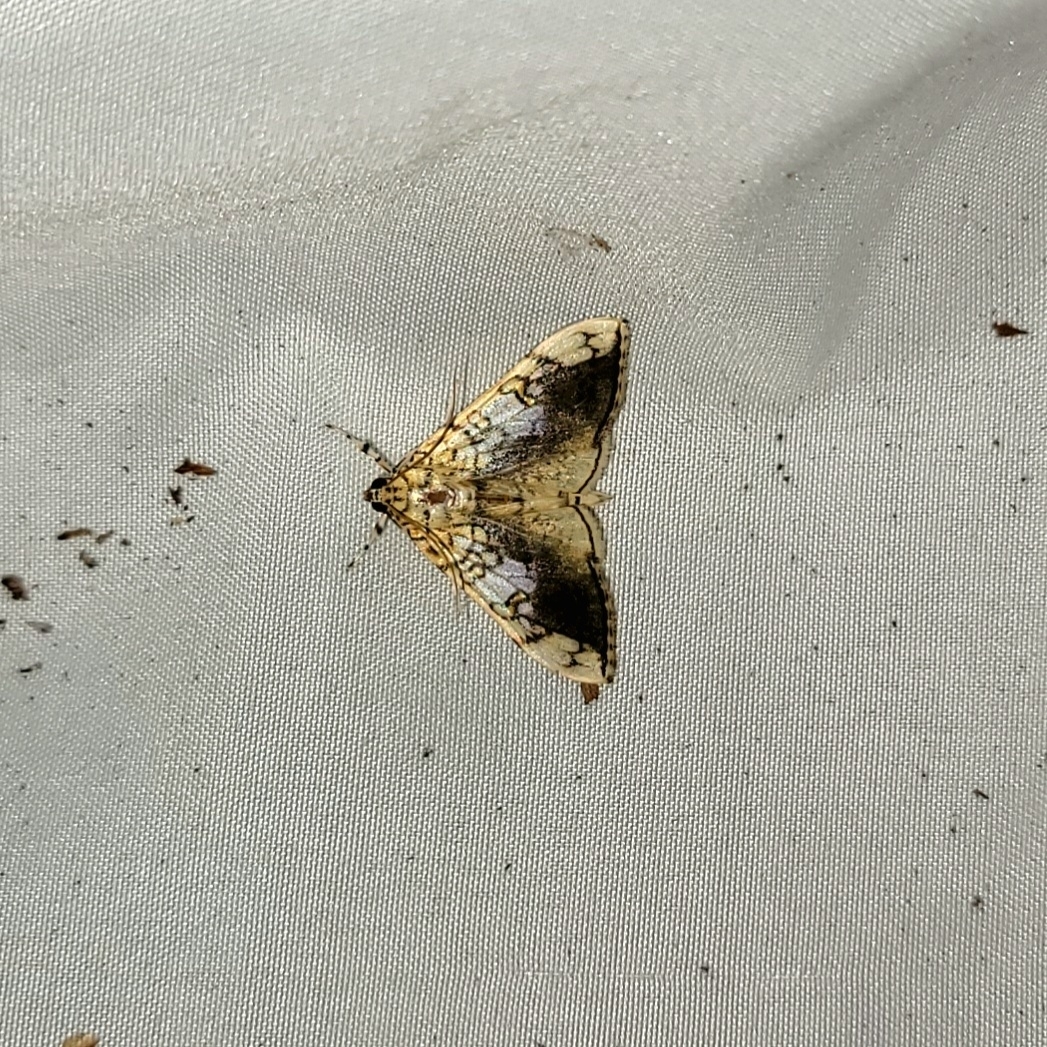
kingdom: Animalia
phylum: Arthropoda
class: Insecta
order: Lepidoptera
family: Crambidae
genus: Pantographa
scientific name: Pantographa limata
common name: Basswood leafroller moth
